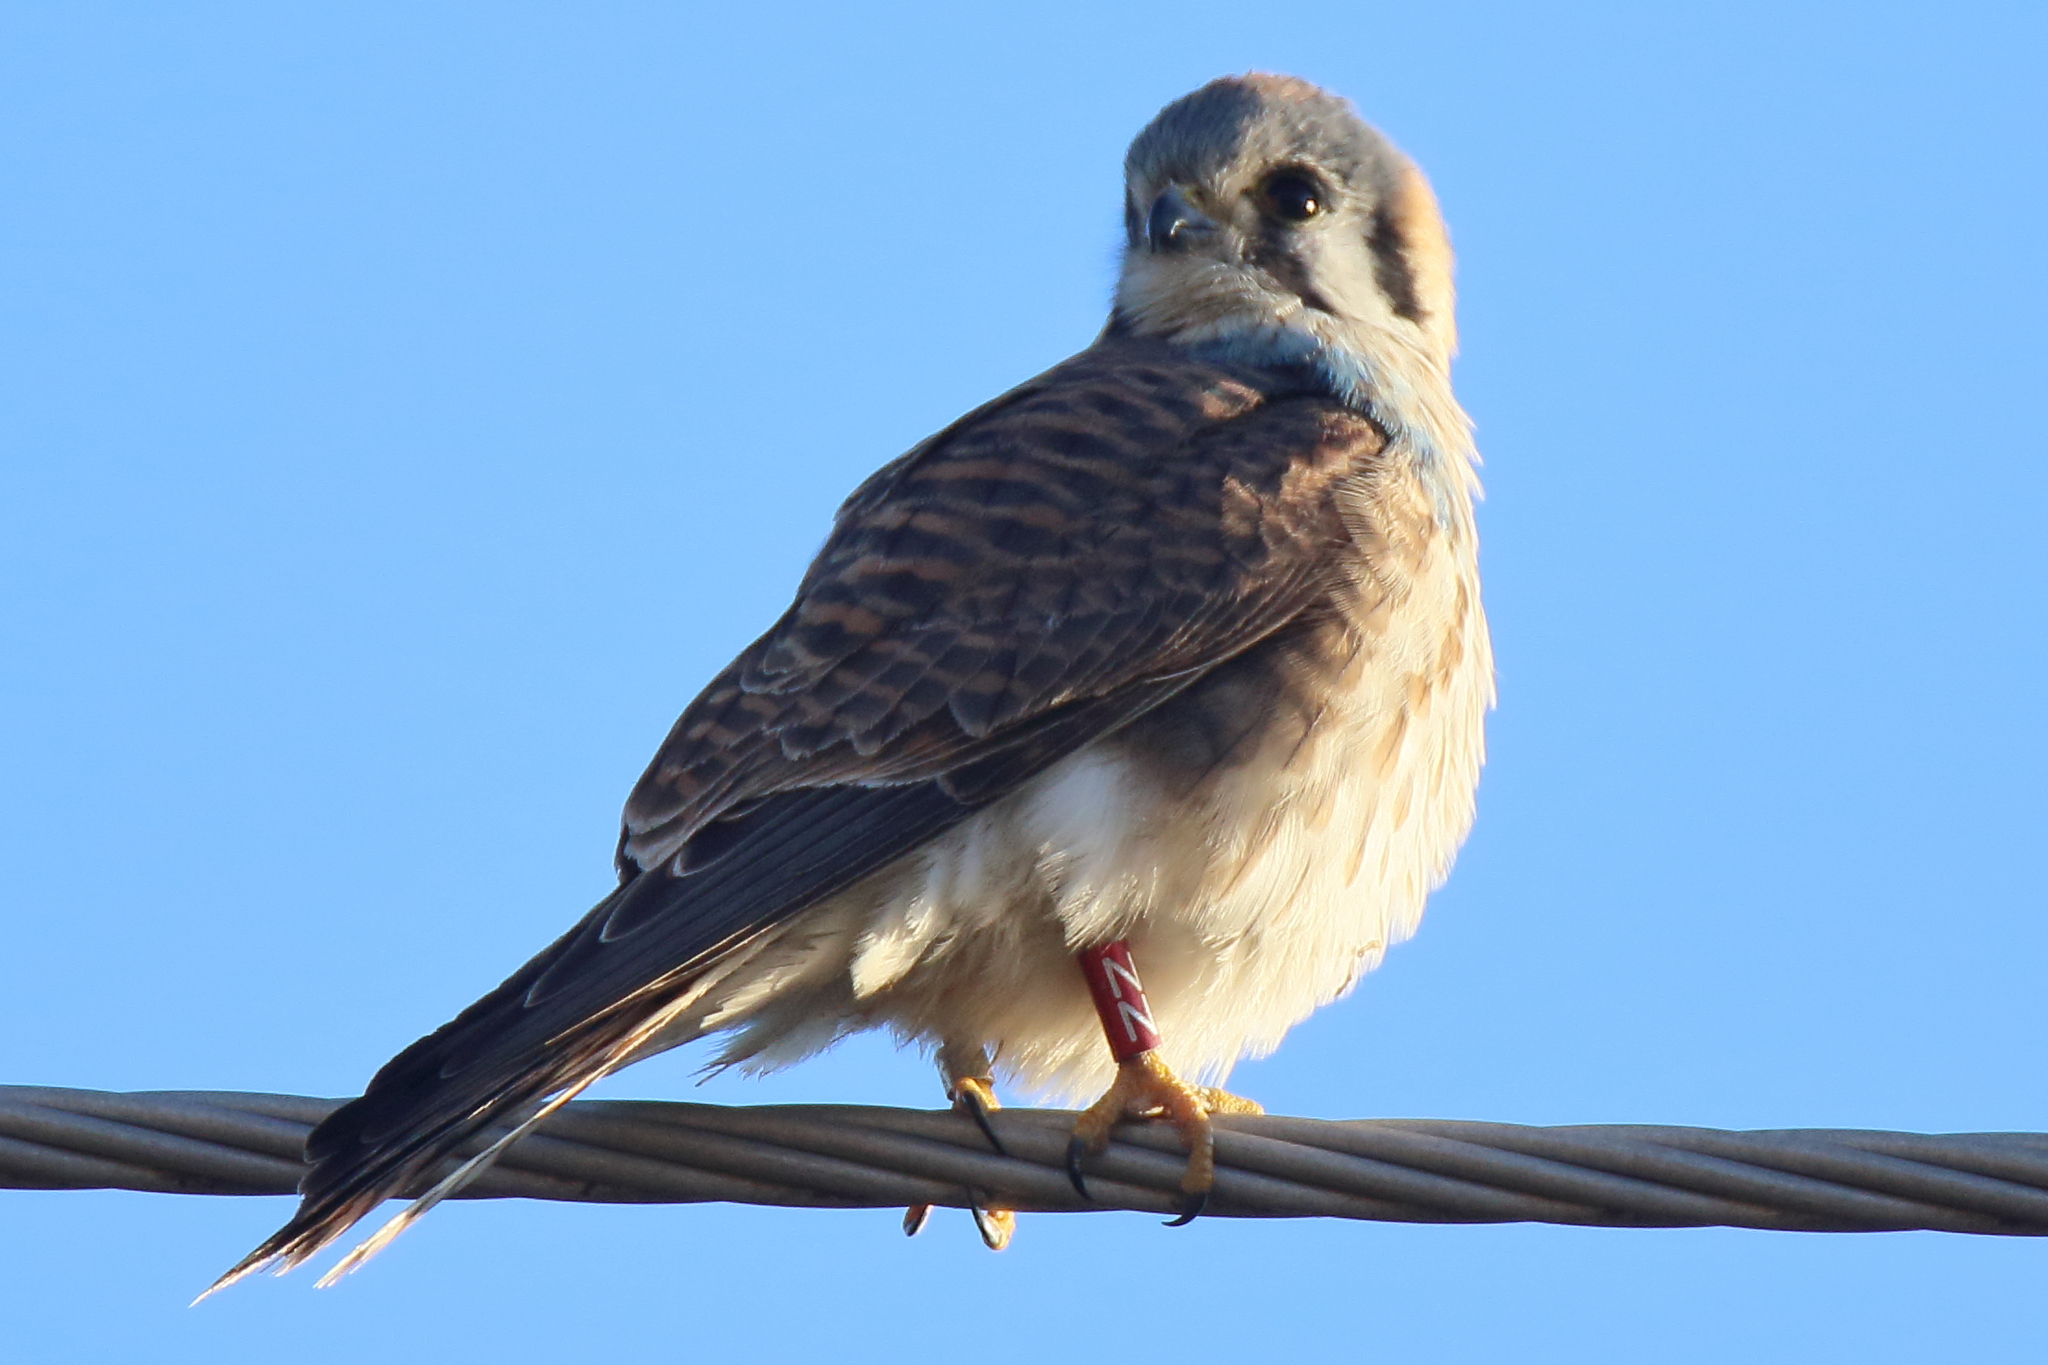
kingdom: Animalia
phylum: Chordata
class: Aves
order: Falconiformes
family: Falconidae
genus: Falco
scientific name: Falco sparverius
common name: American kestrel
